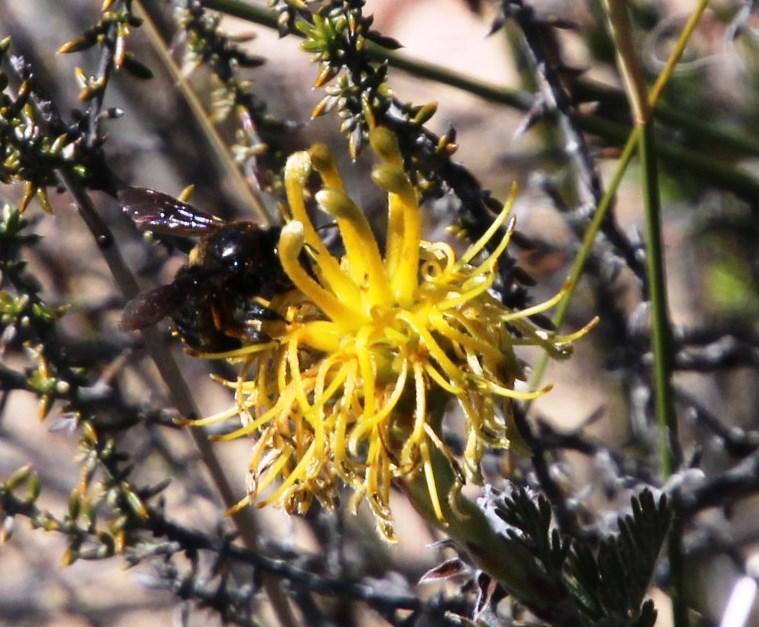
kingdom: Plantae
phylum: Tracheophyta
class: Magnoliopsida
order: Proteales
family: Proteaceae
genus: Serruria
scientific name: Serruria flava
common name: Spiderhead
